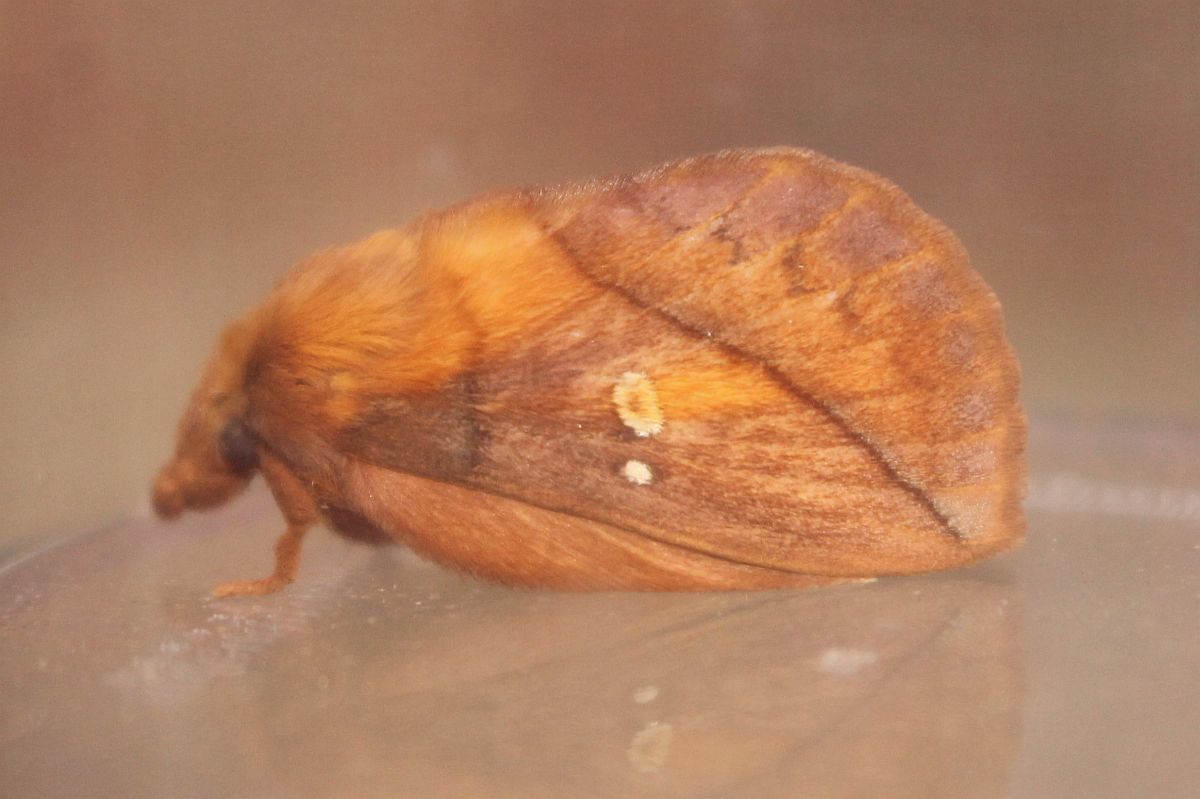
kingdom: Animalia
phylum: Arthropoda
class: Insecta
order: Lepidoptera
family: Lasiocampidae
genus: Euthrix
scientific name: Euthrix potatoria
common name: Drinker
